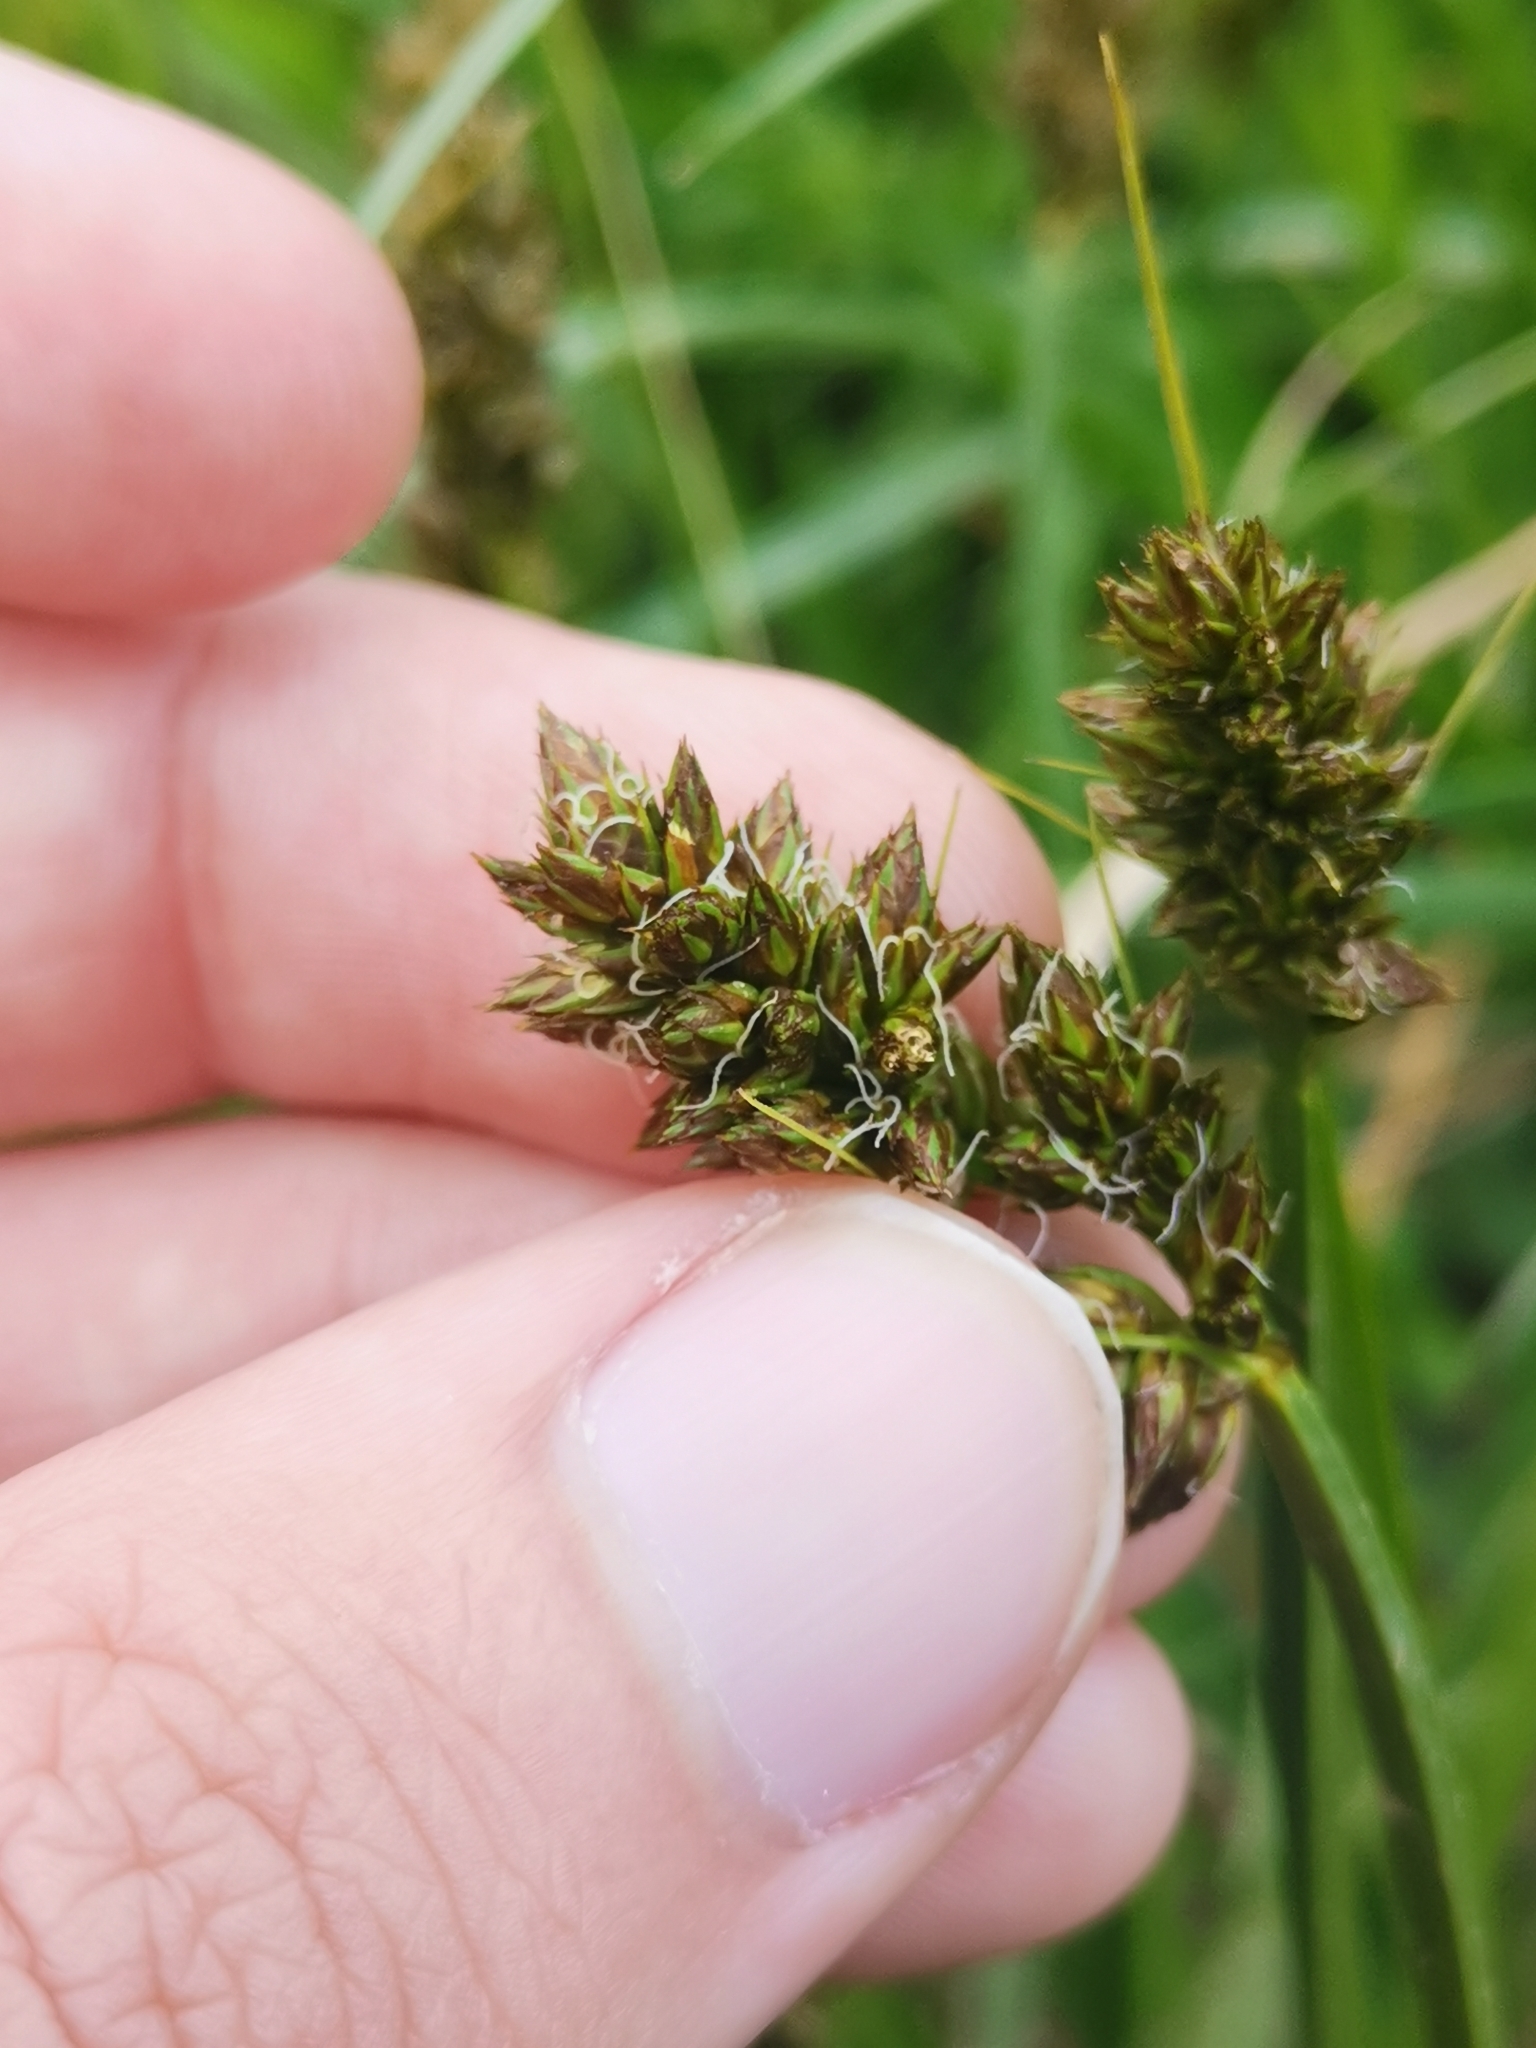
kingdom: Plantae
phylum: Tracheophyta
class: Liliopsida
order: Poales
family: Cyperaceae
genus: Carex
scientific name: Carex otrubae
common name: False fox-sedge
